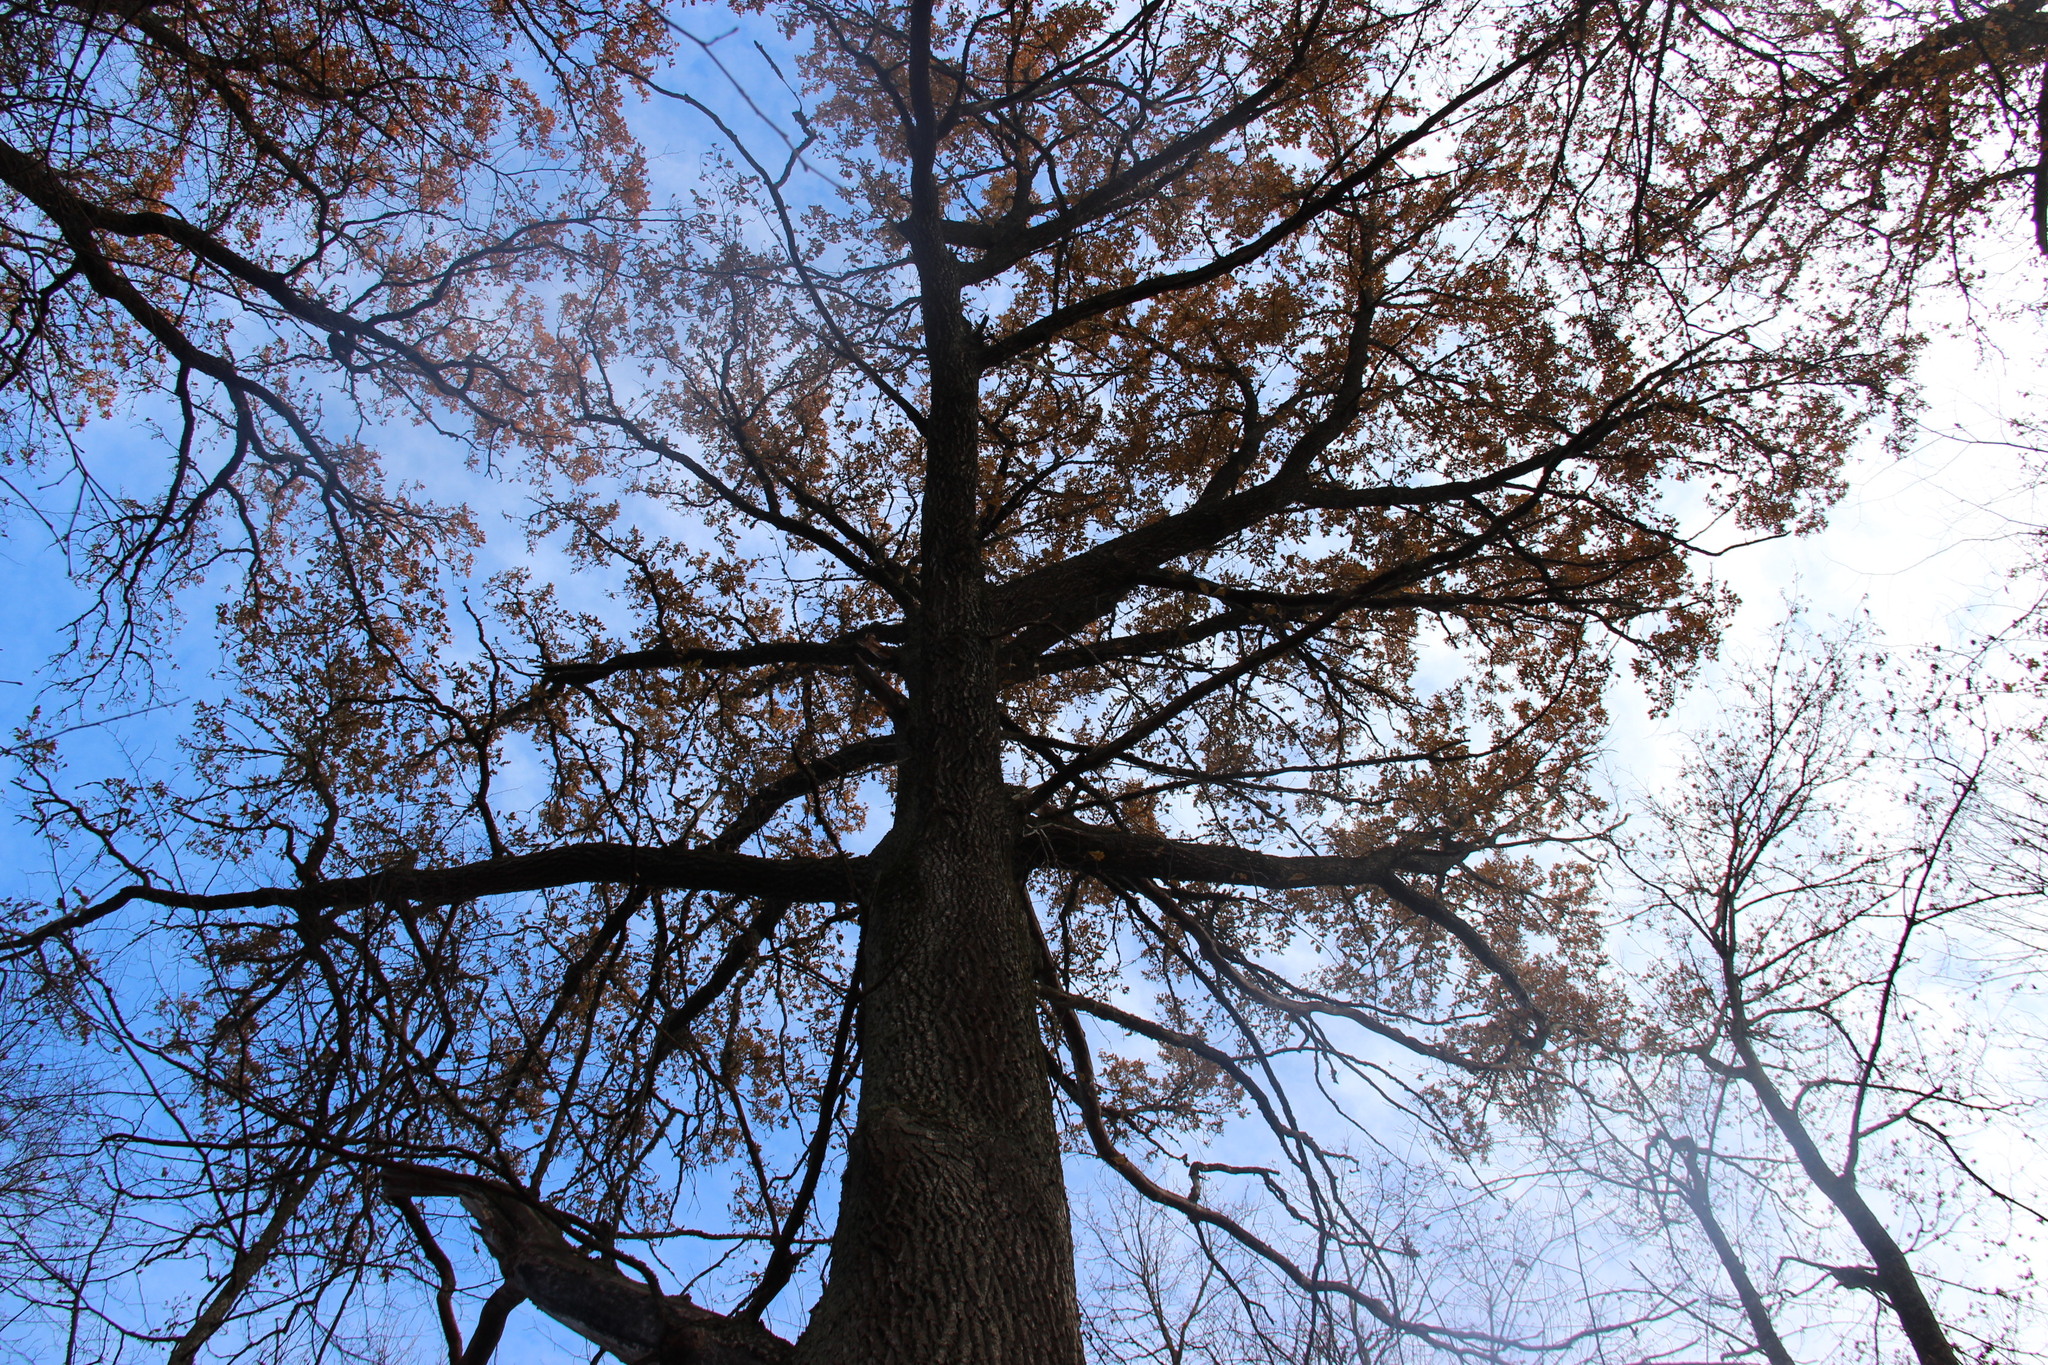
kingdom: Plantae
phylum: Tracheophyta
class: Magnoliopsida
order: Fagales
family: Fagaceae
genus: Quercus
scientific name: Quercus robur
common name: Pedunculate oak
